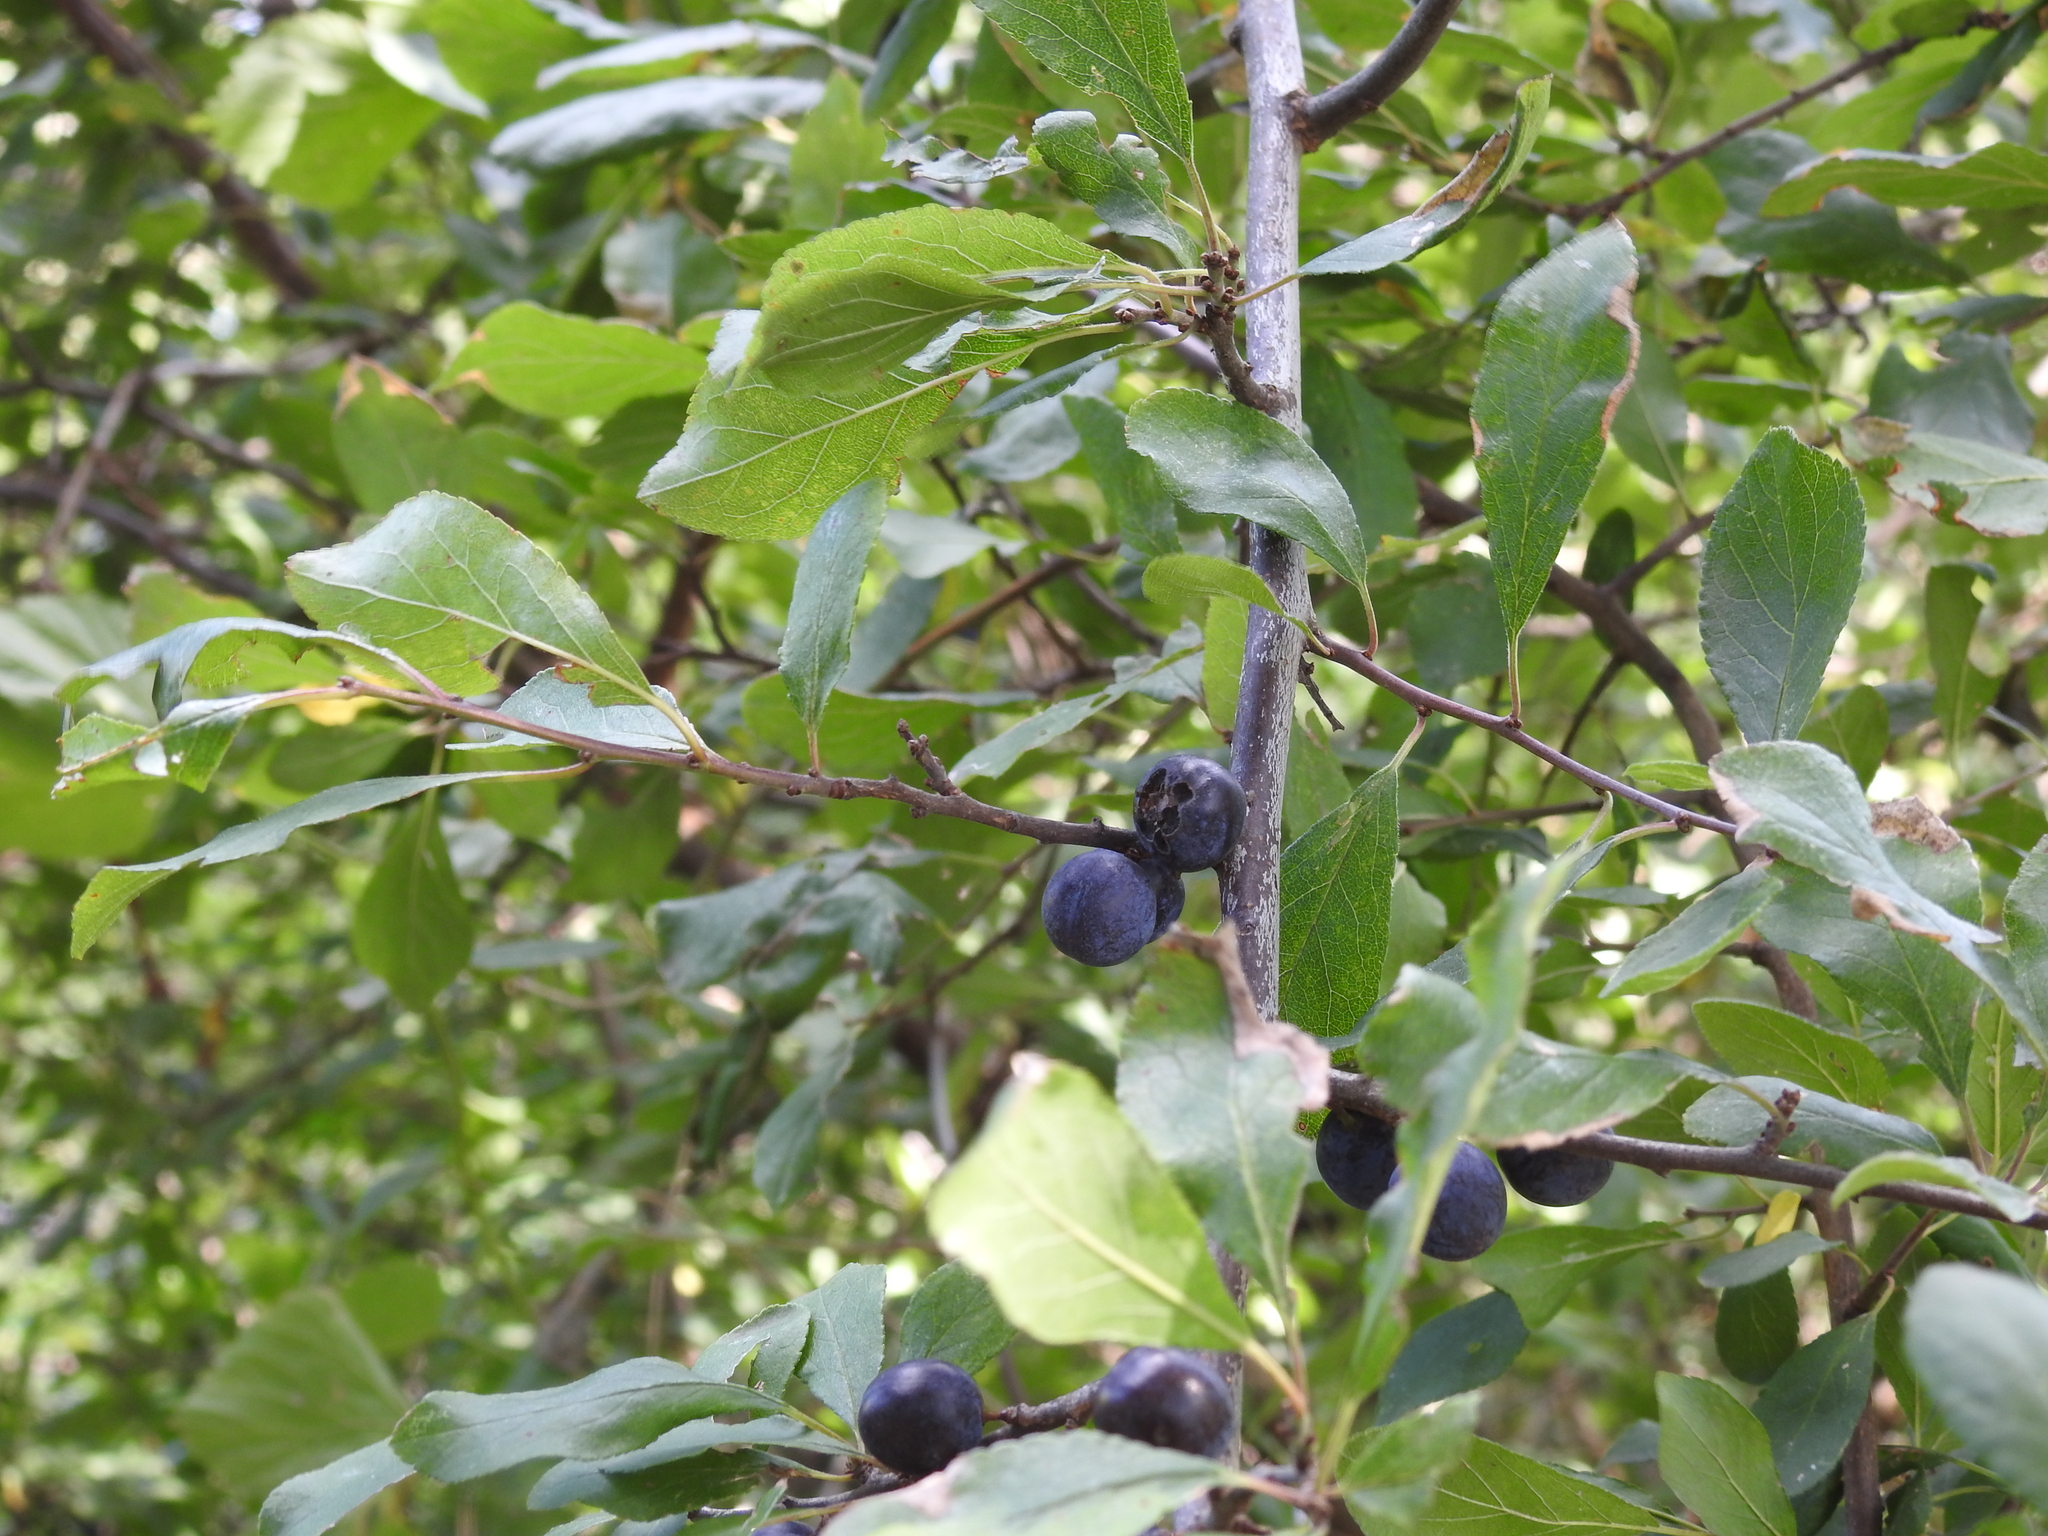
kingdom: Plantae
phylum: Tracheophyta
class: Magnoliopsida
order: Rosales
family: Rosaceae
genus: Prunus
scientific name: Prunus spinosa
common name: Blackthorn
